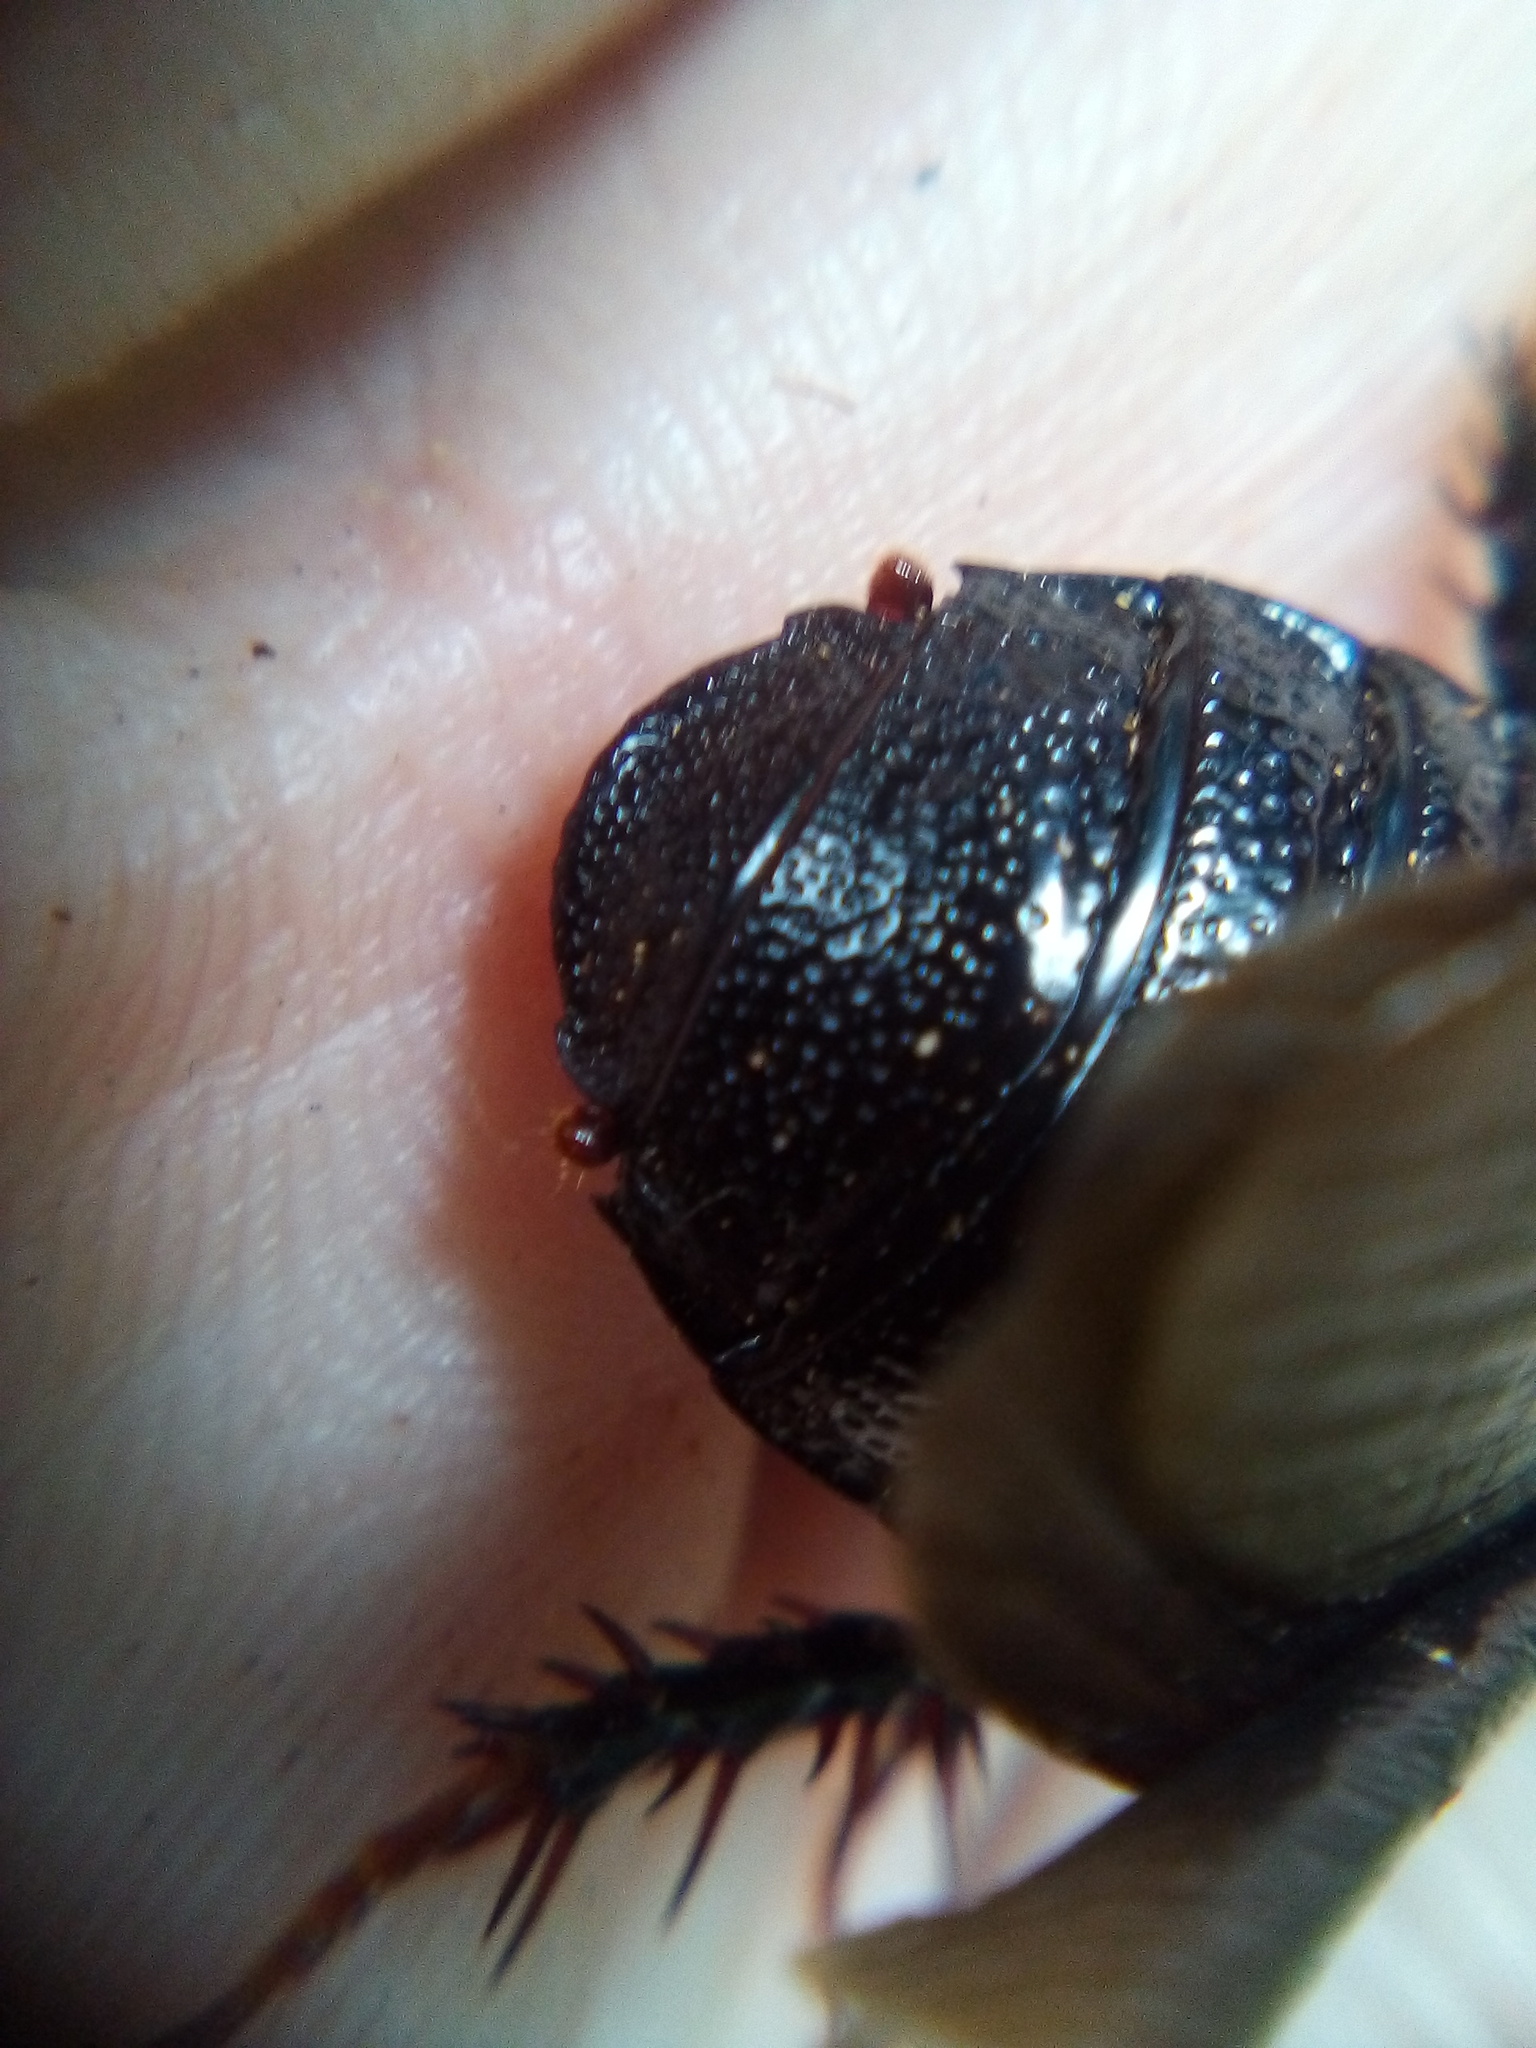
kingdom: Animalia
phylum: Arthropoda
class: Insecta
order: Blattodea
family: Blaberidae
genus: Panesthia
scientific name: Panesthia cribrata
